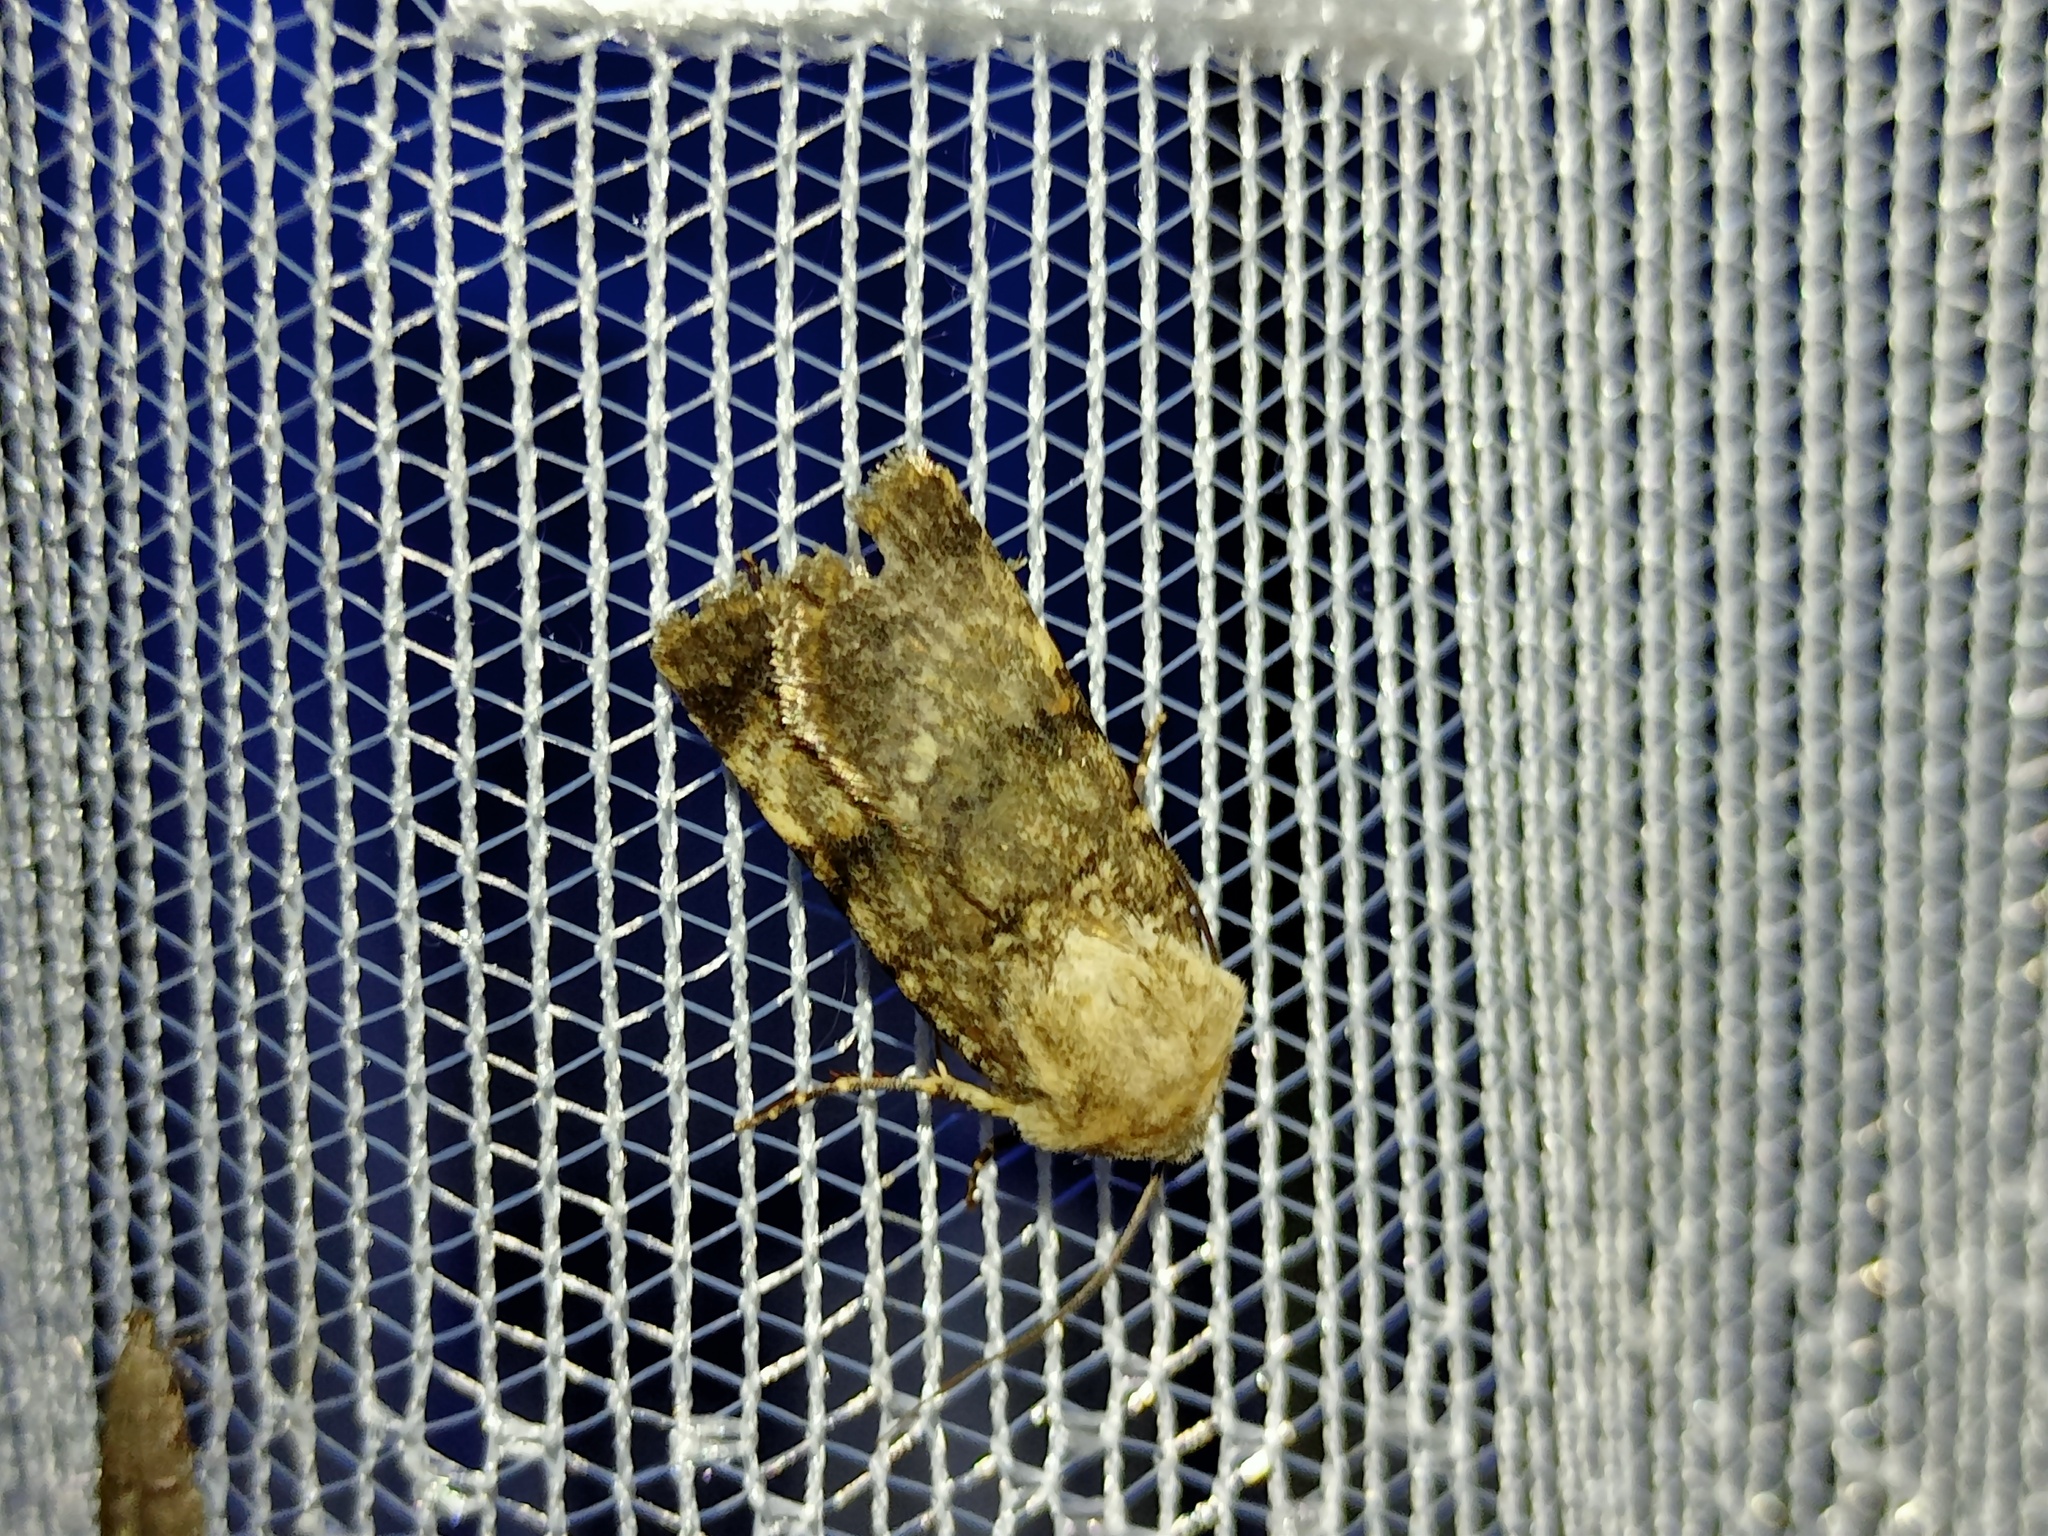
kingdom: Animalia
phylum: Arthropoda
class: Insecta
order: Lepidoptera
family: Noctuidae
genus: Chersotis
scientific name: Chersotis fimbriola
